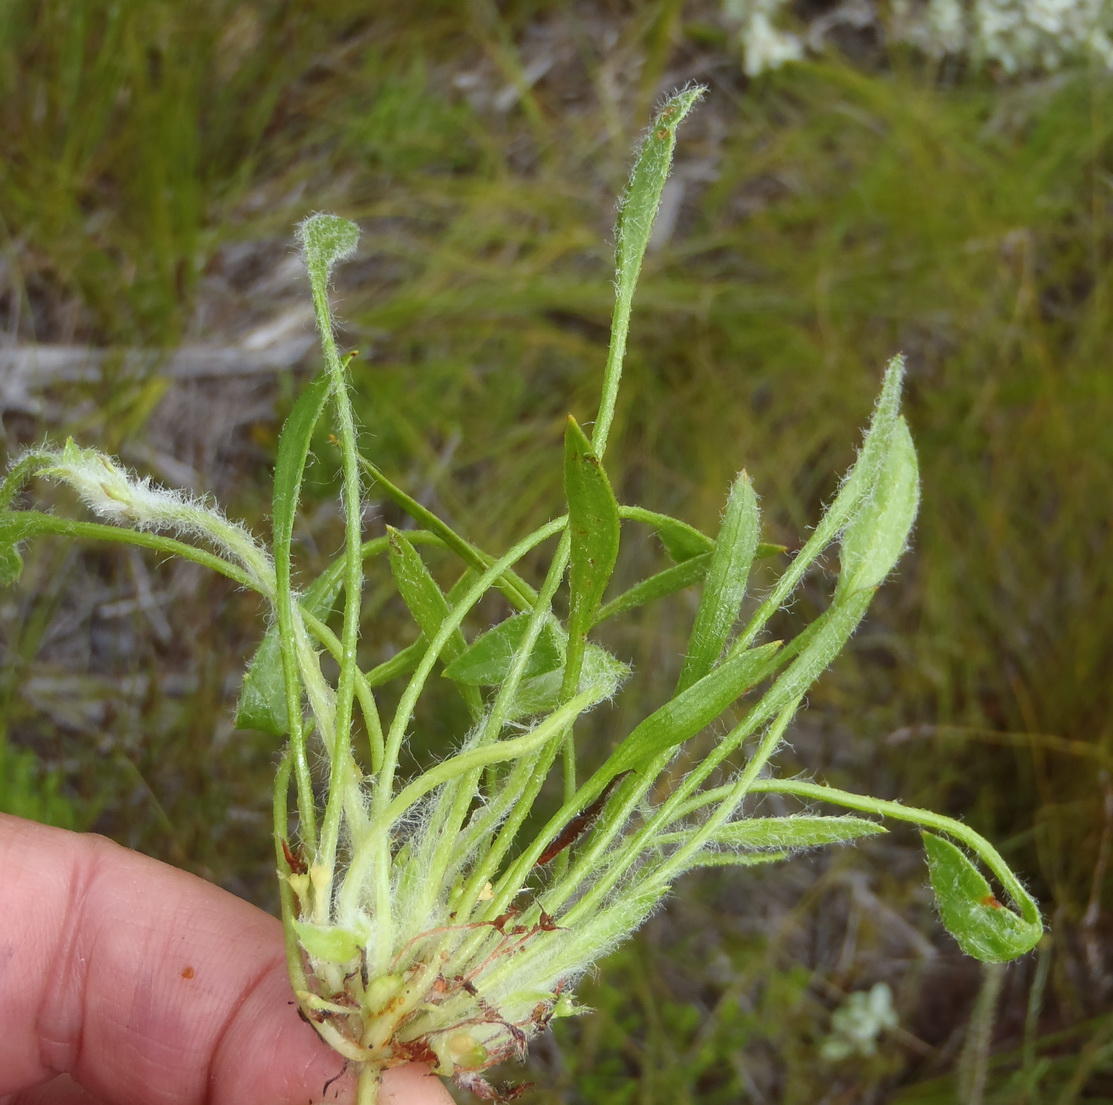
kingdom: Plantae
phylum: Tracheophyta
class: Magnoliopsida
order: Apiales
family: Apiaceae
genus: Centella
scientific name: Centella longifolia
